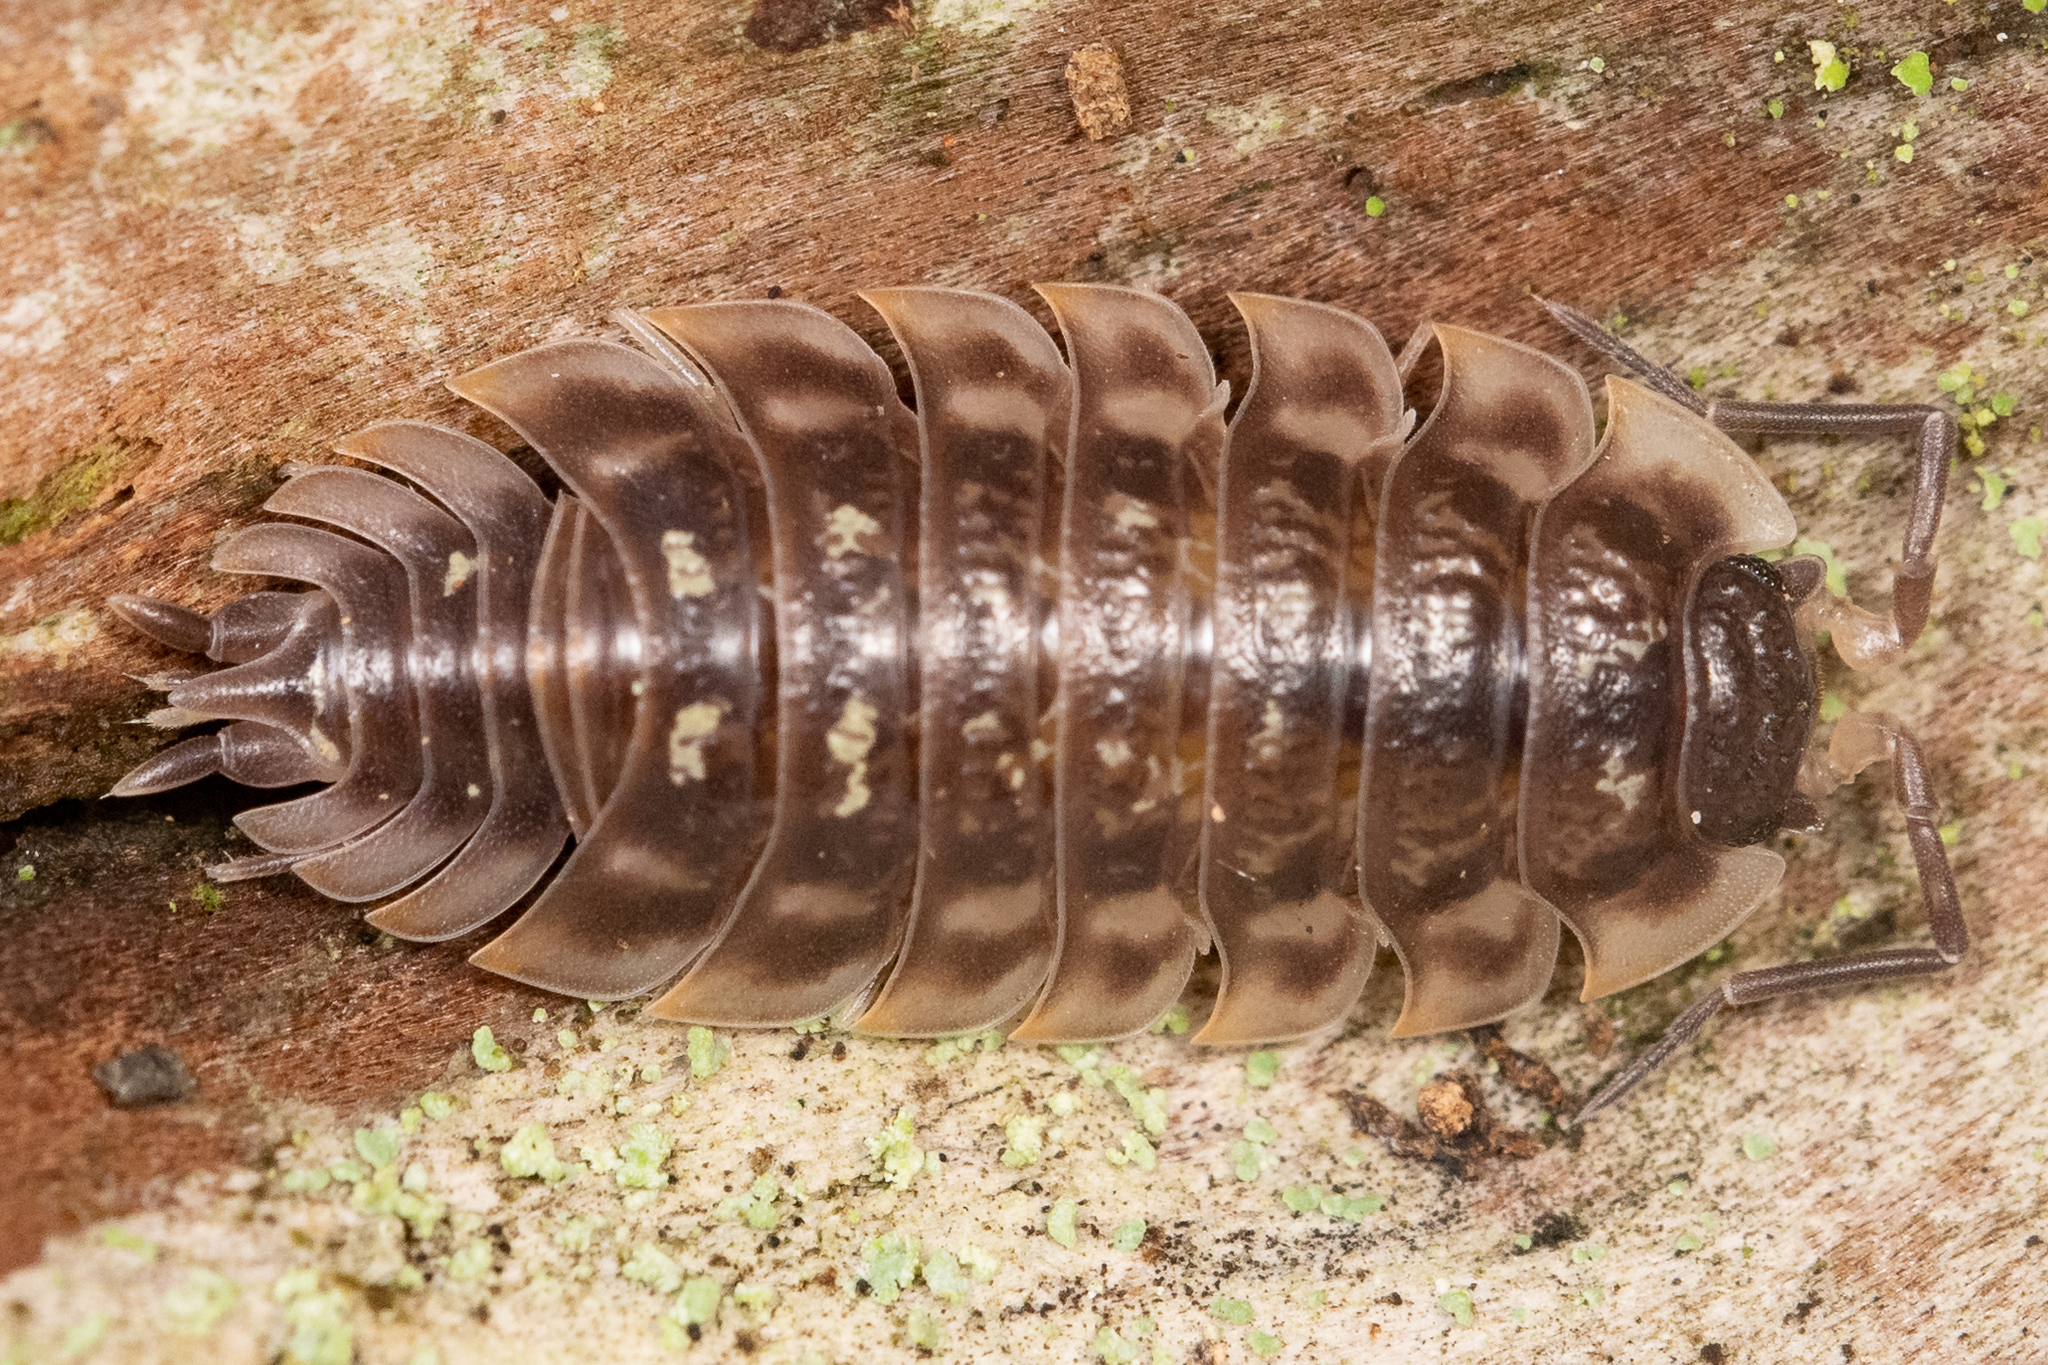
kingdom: Animalia
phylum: Arthropoda
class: Malacostraca
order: Isopoda
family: Oniscidae
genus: Oniscus
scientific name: Oniscus asellus
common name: Common shiny woodlouse
